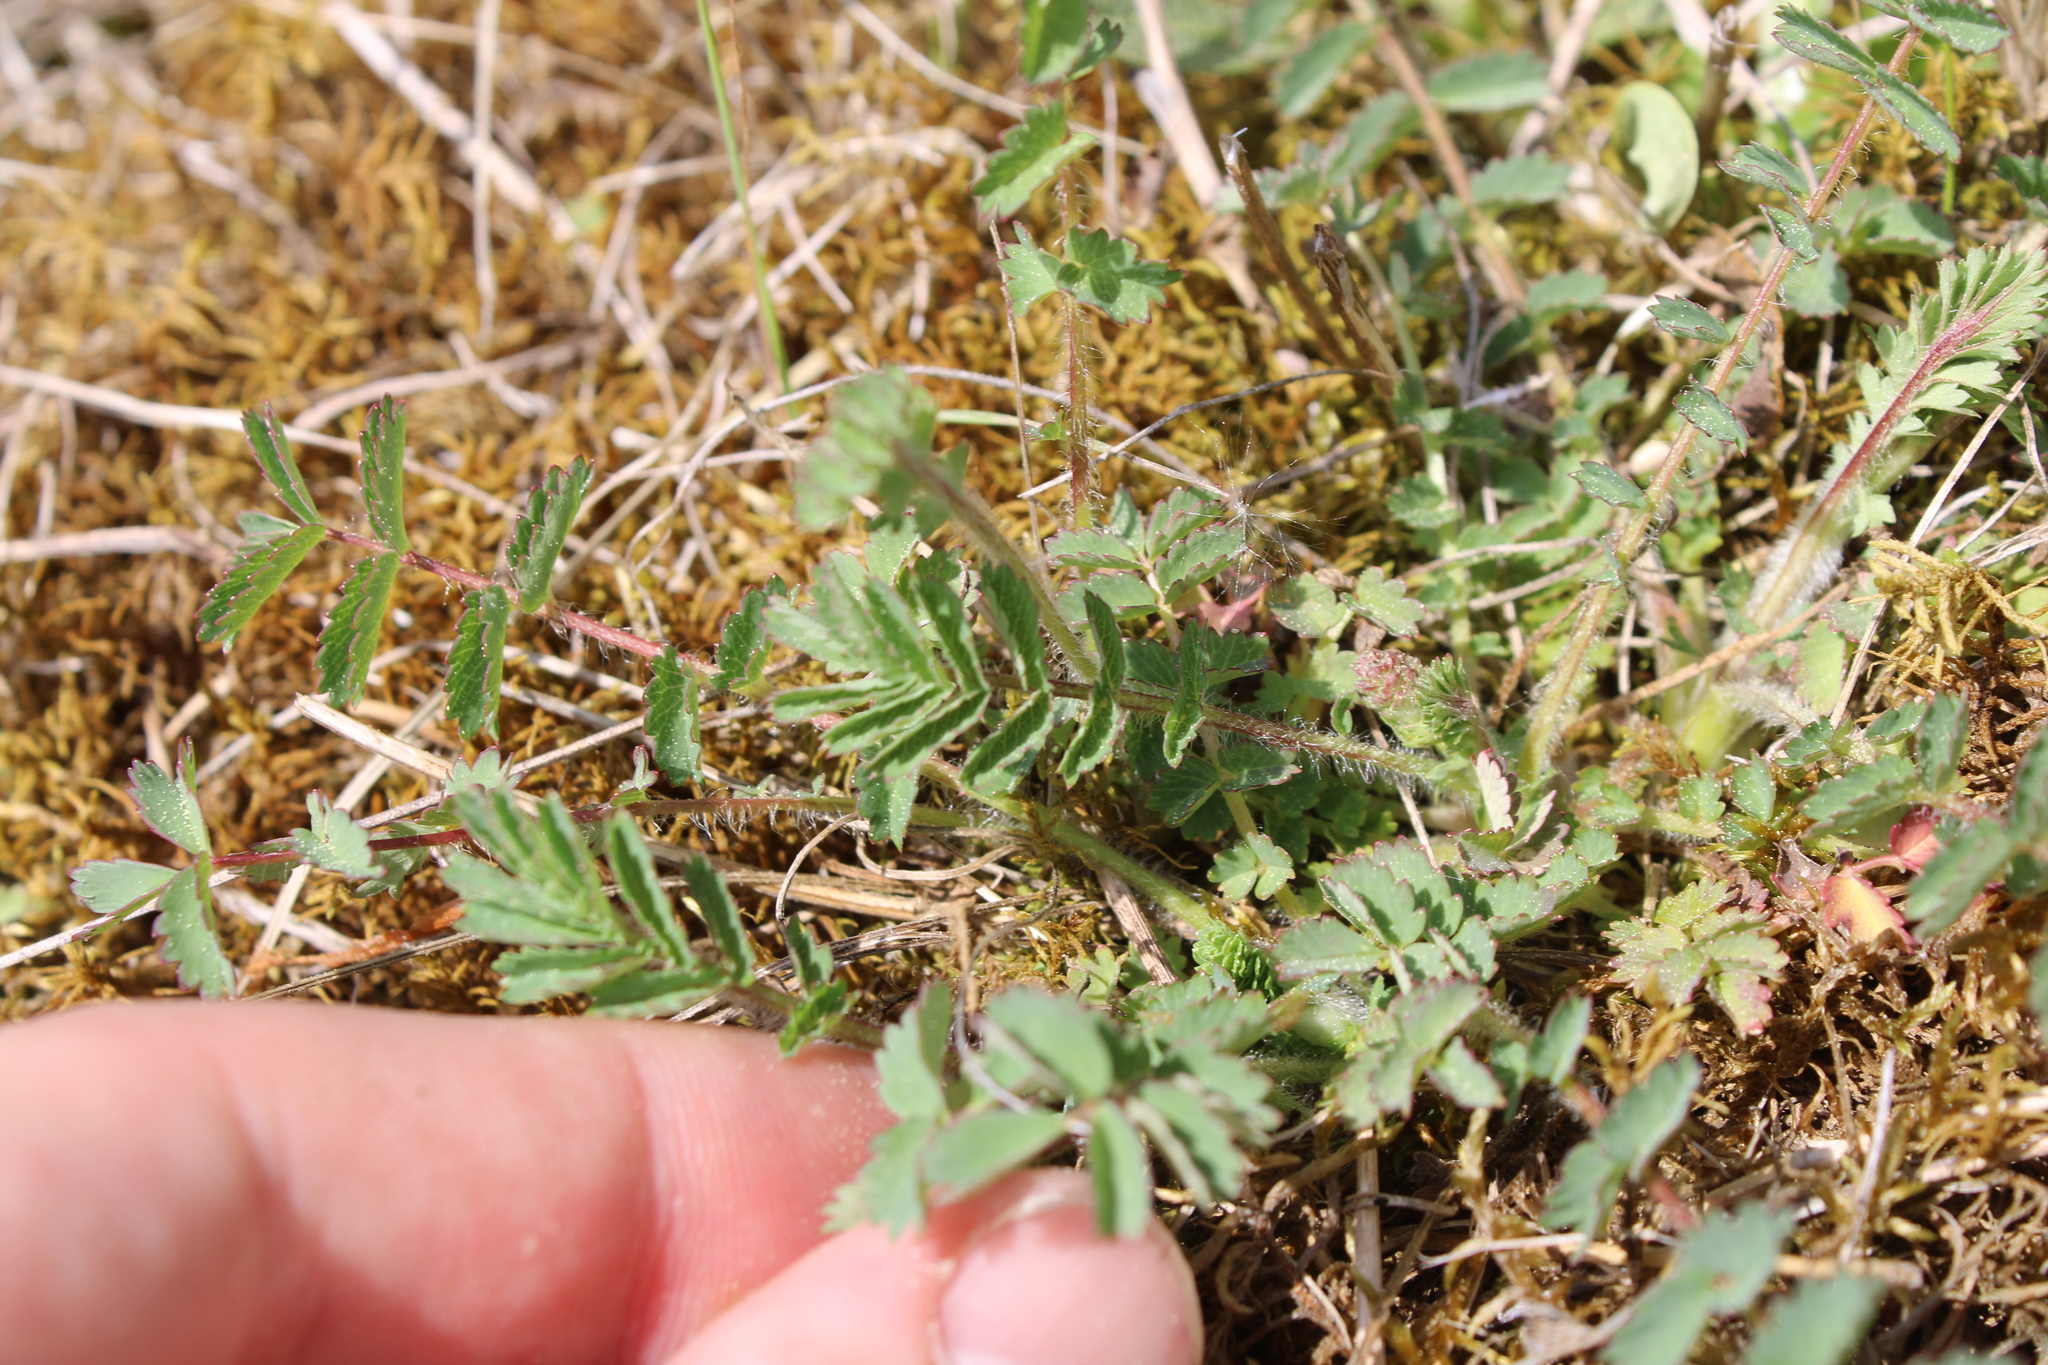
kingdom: Plantae
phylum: Tracheophyta
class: Magnoliopsida
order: Rosales
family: Rosaceae
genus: Poterium
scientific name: Poterium sanguisorba
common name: Salad burnet
